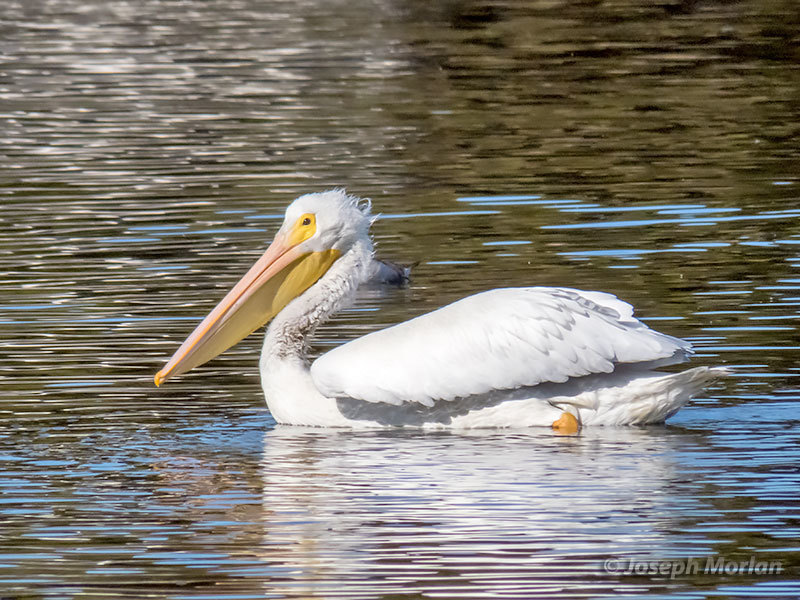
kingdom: Animalia
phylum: Chordata
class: Aves
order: Pelecaniformes
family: Pelecanidae
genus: Pelecanus
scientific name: Pelecanus erythrorhynchos
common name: American white pelican
